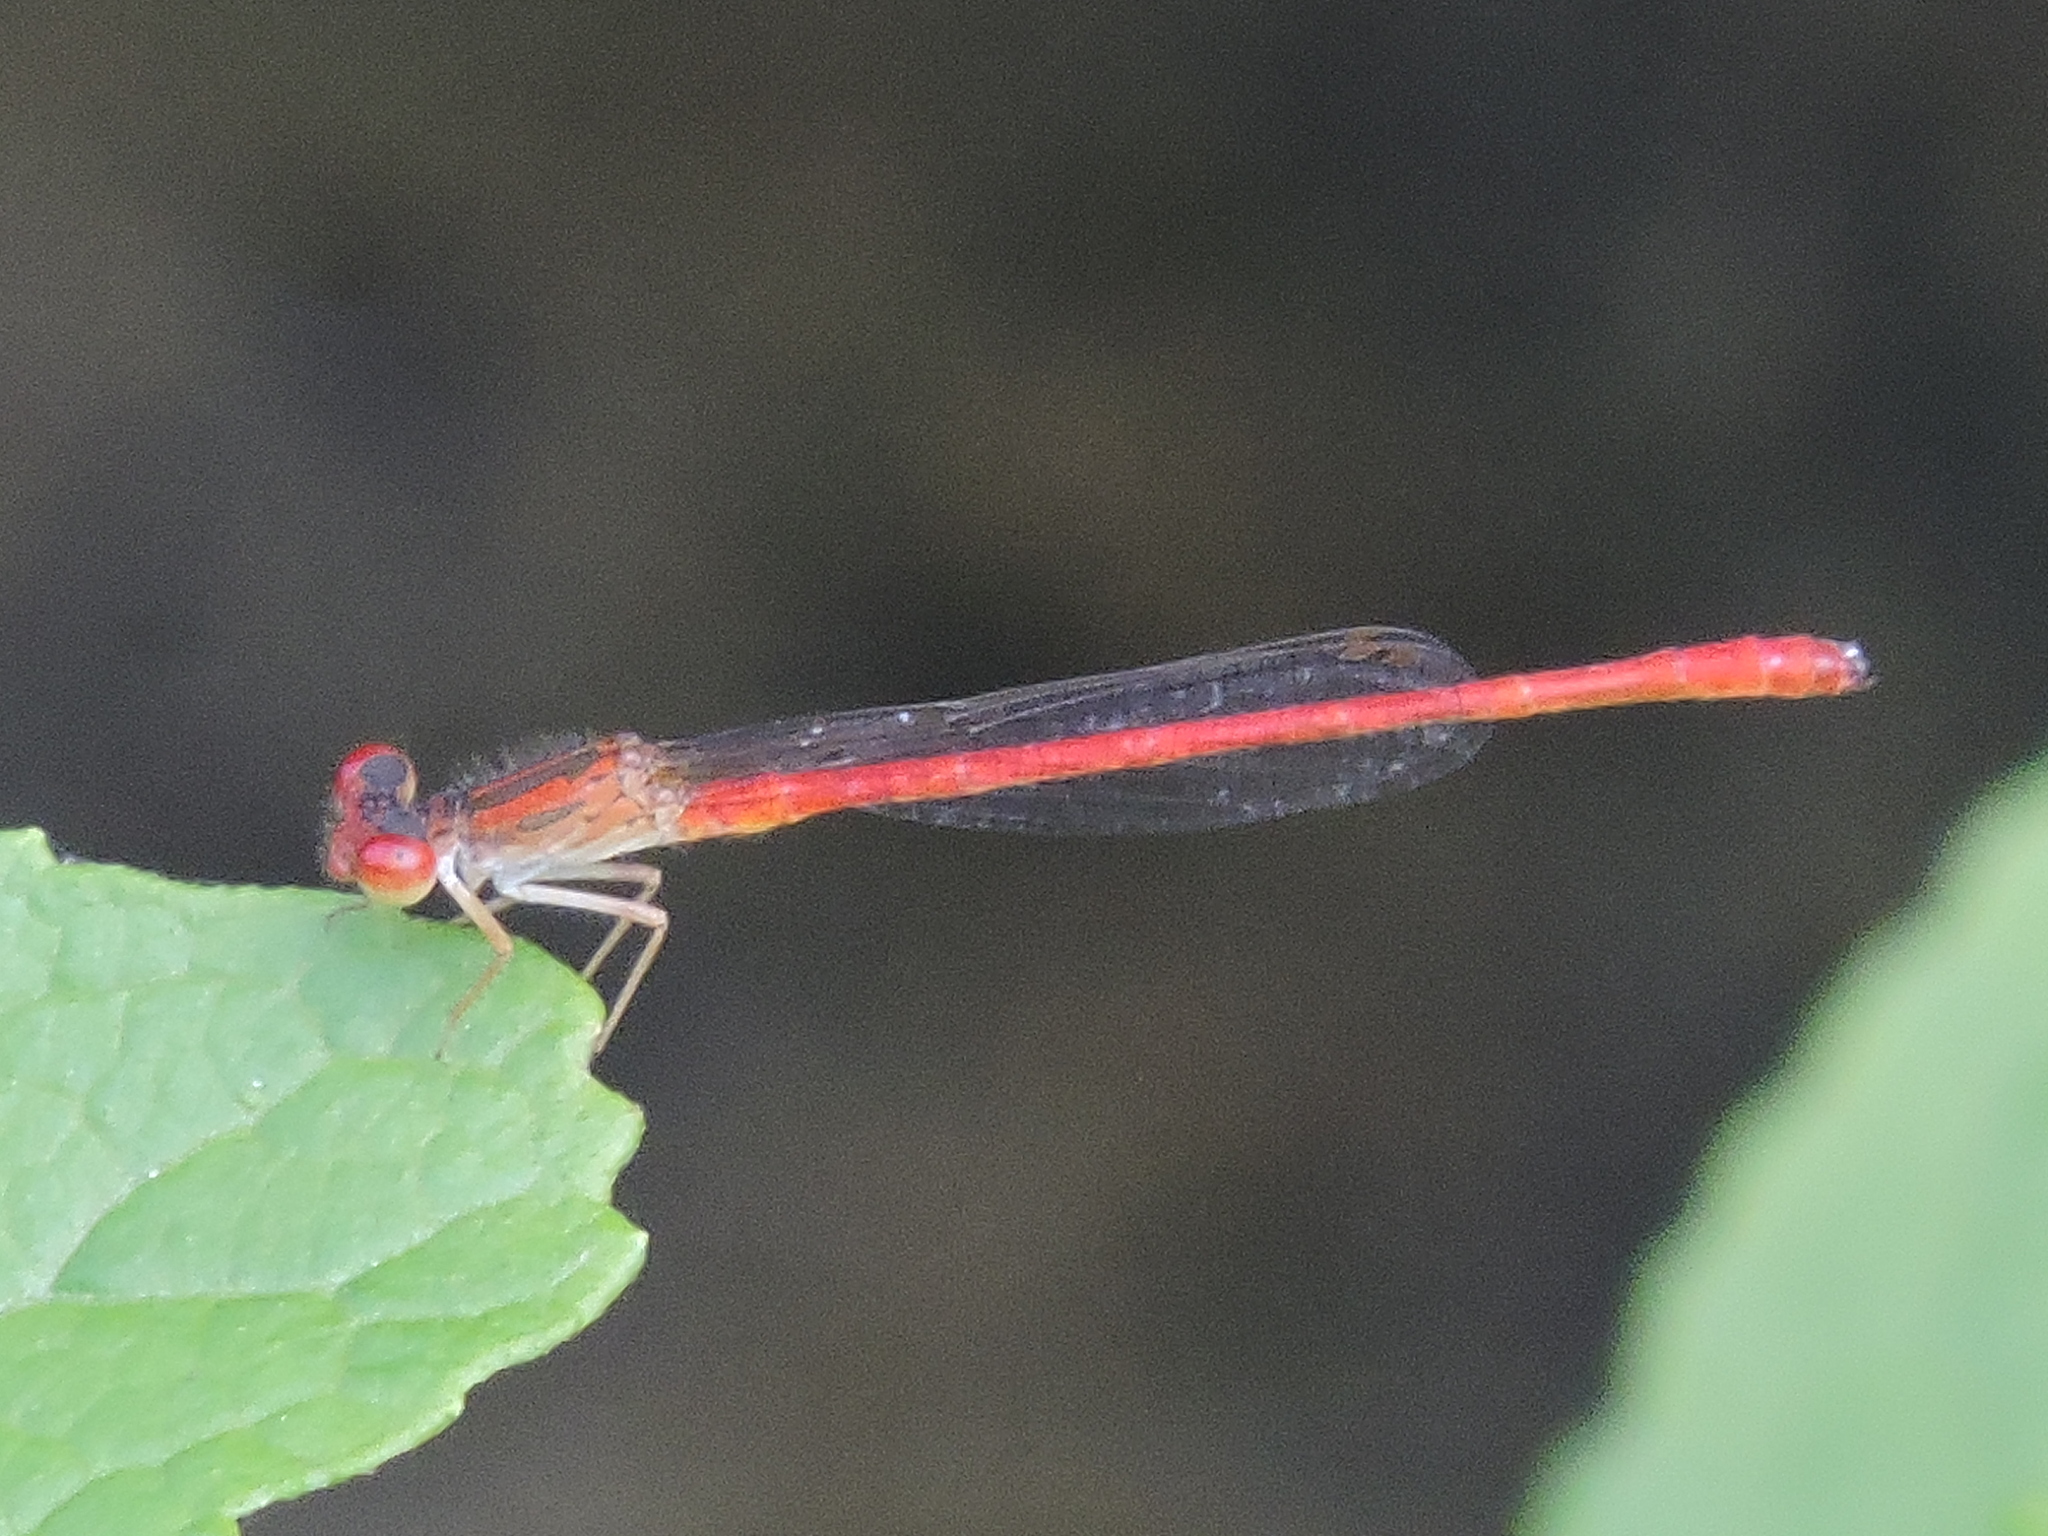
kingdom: Animalia
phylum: Arthropoda
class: Insecta
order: Odonata
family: Coenagrionidae
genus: Telebasis
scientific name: Telebasis salva
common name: Desert firetail
